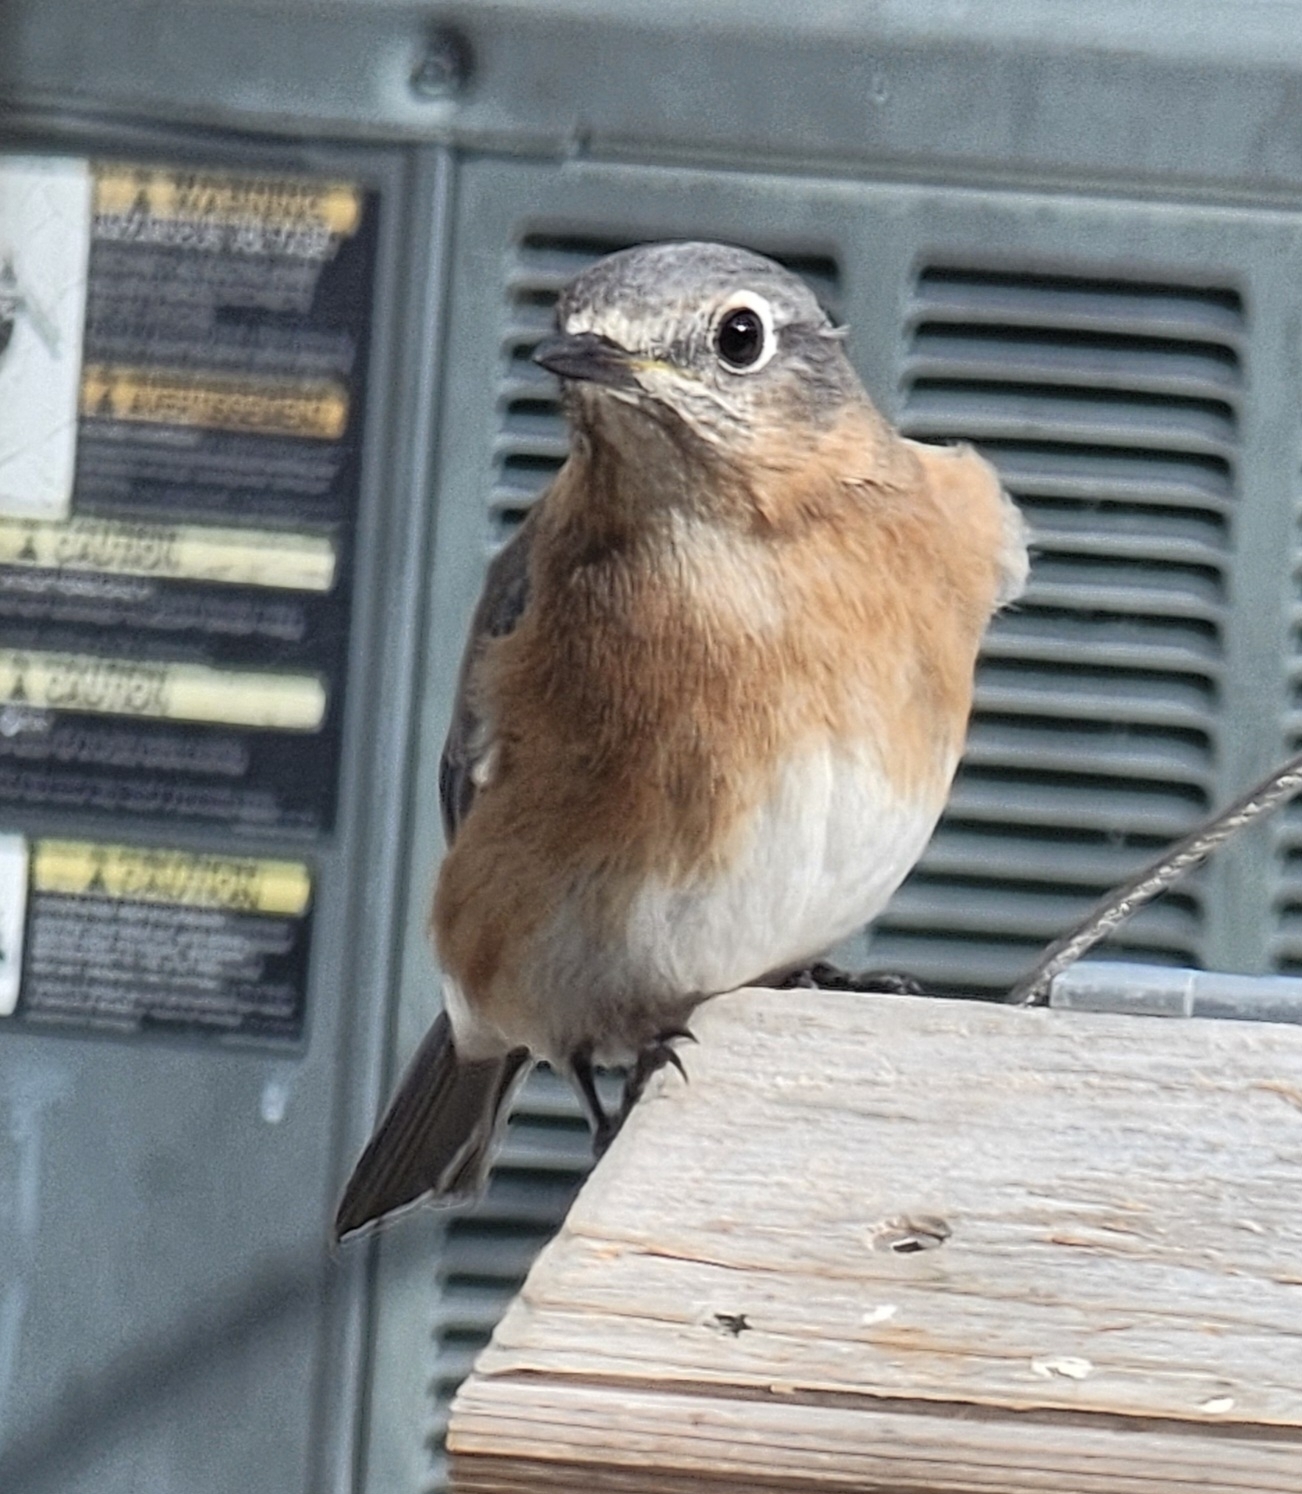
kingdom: Animalia
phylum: Chordata
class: Aves
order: Passeriformes
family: Turdidae
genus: Sialia
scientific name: Sialia sialis
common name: Eastern bluebird
